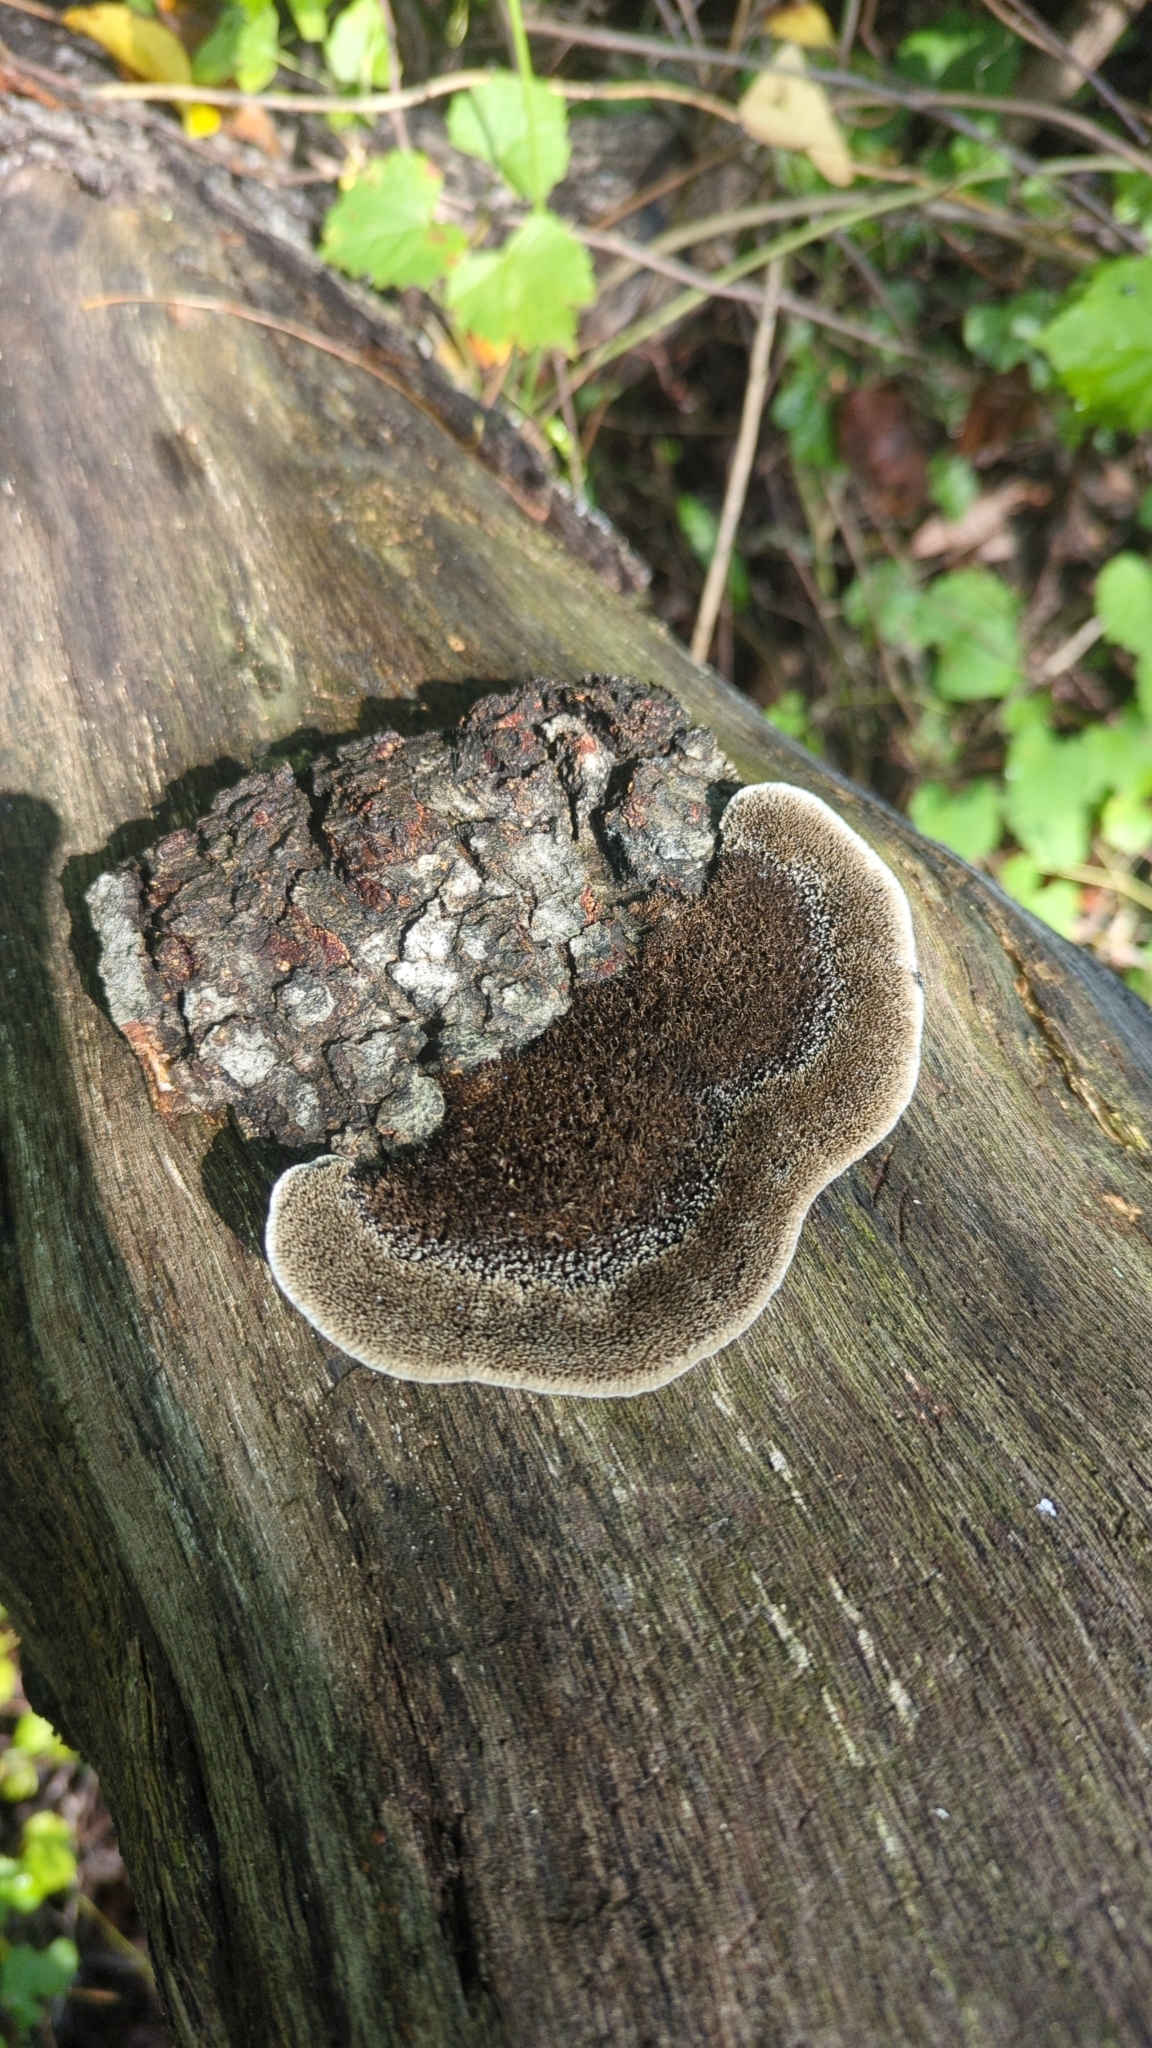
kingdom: Fungi
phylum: Basidiomycota
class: Agaricomycetes
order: Polyporales
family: Cerrenaceae
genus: Cerrena
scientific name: Cerrena hydnoides
